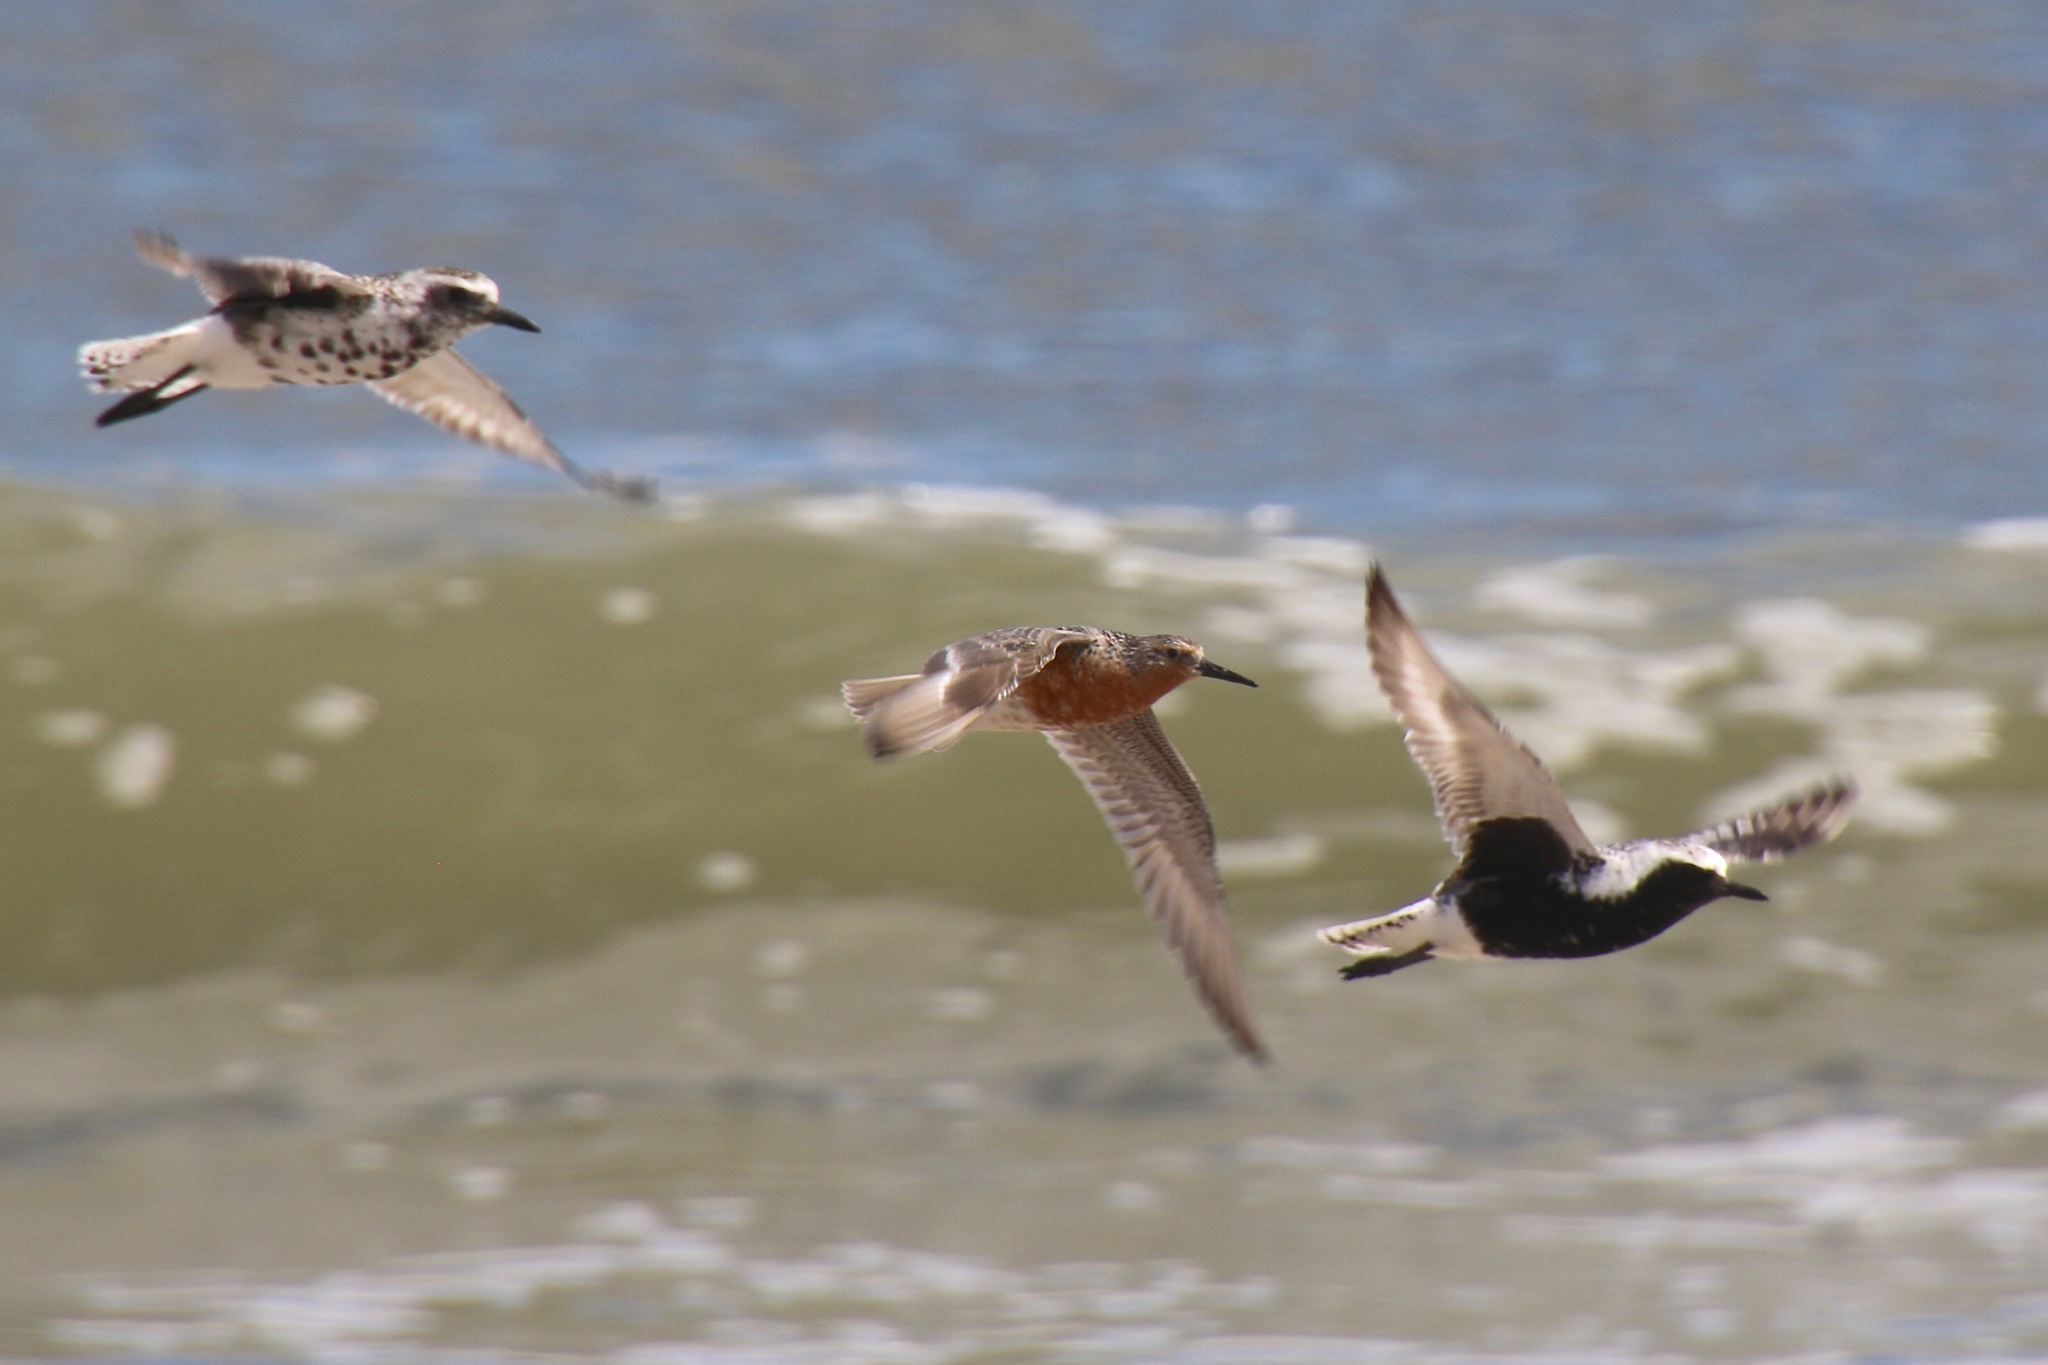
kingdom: Animalia
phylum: Chordata
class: Aves
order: Charadriiformes
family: Scolopacidae
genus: Calidris
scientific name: Calidris canutus
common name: Red knot
